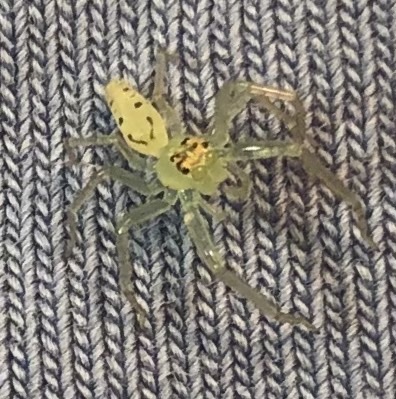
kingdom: Animalia
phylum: Arthropoda
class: Arachnida
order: Araneae
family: Salticidae
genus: Lyssomanes
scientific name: Lyssomanes viridis
